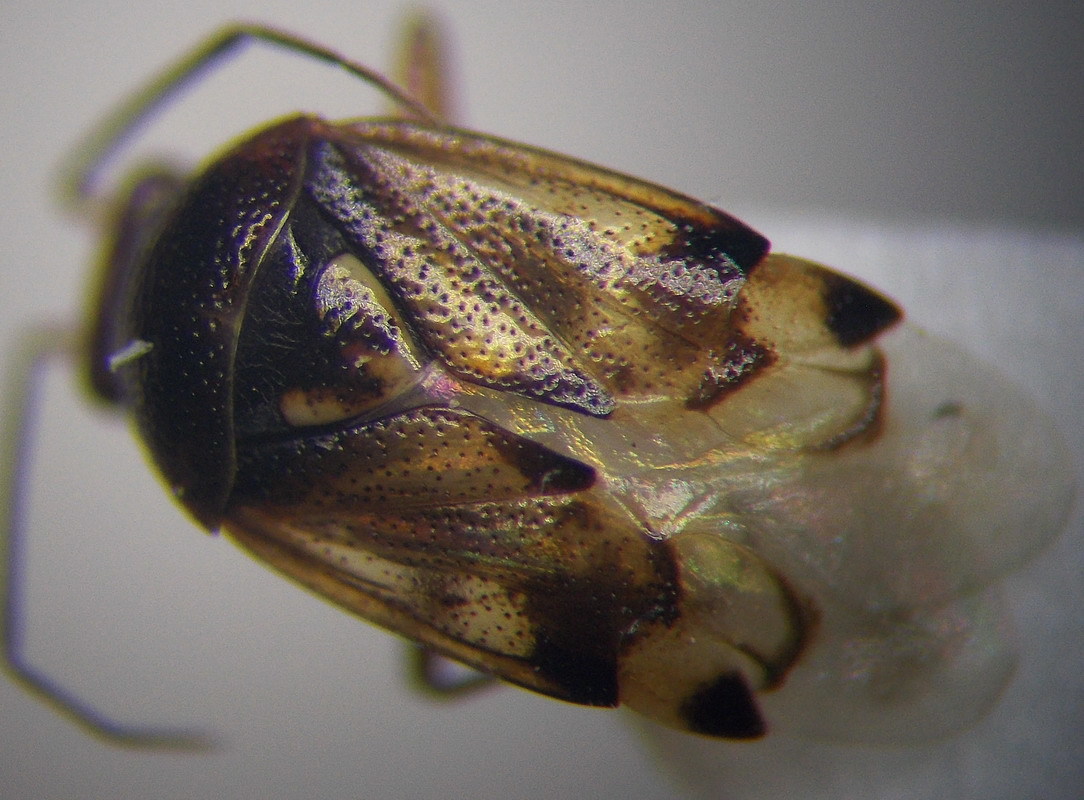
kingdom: Animalia
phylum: Arthropoda
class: Insecta
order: Hemiptera
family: Miridae
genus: Deraeocoris
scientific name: Deraeocoris serenus
